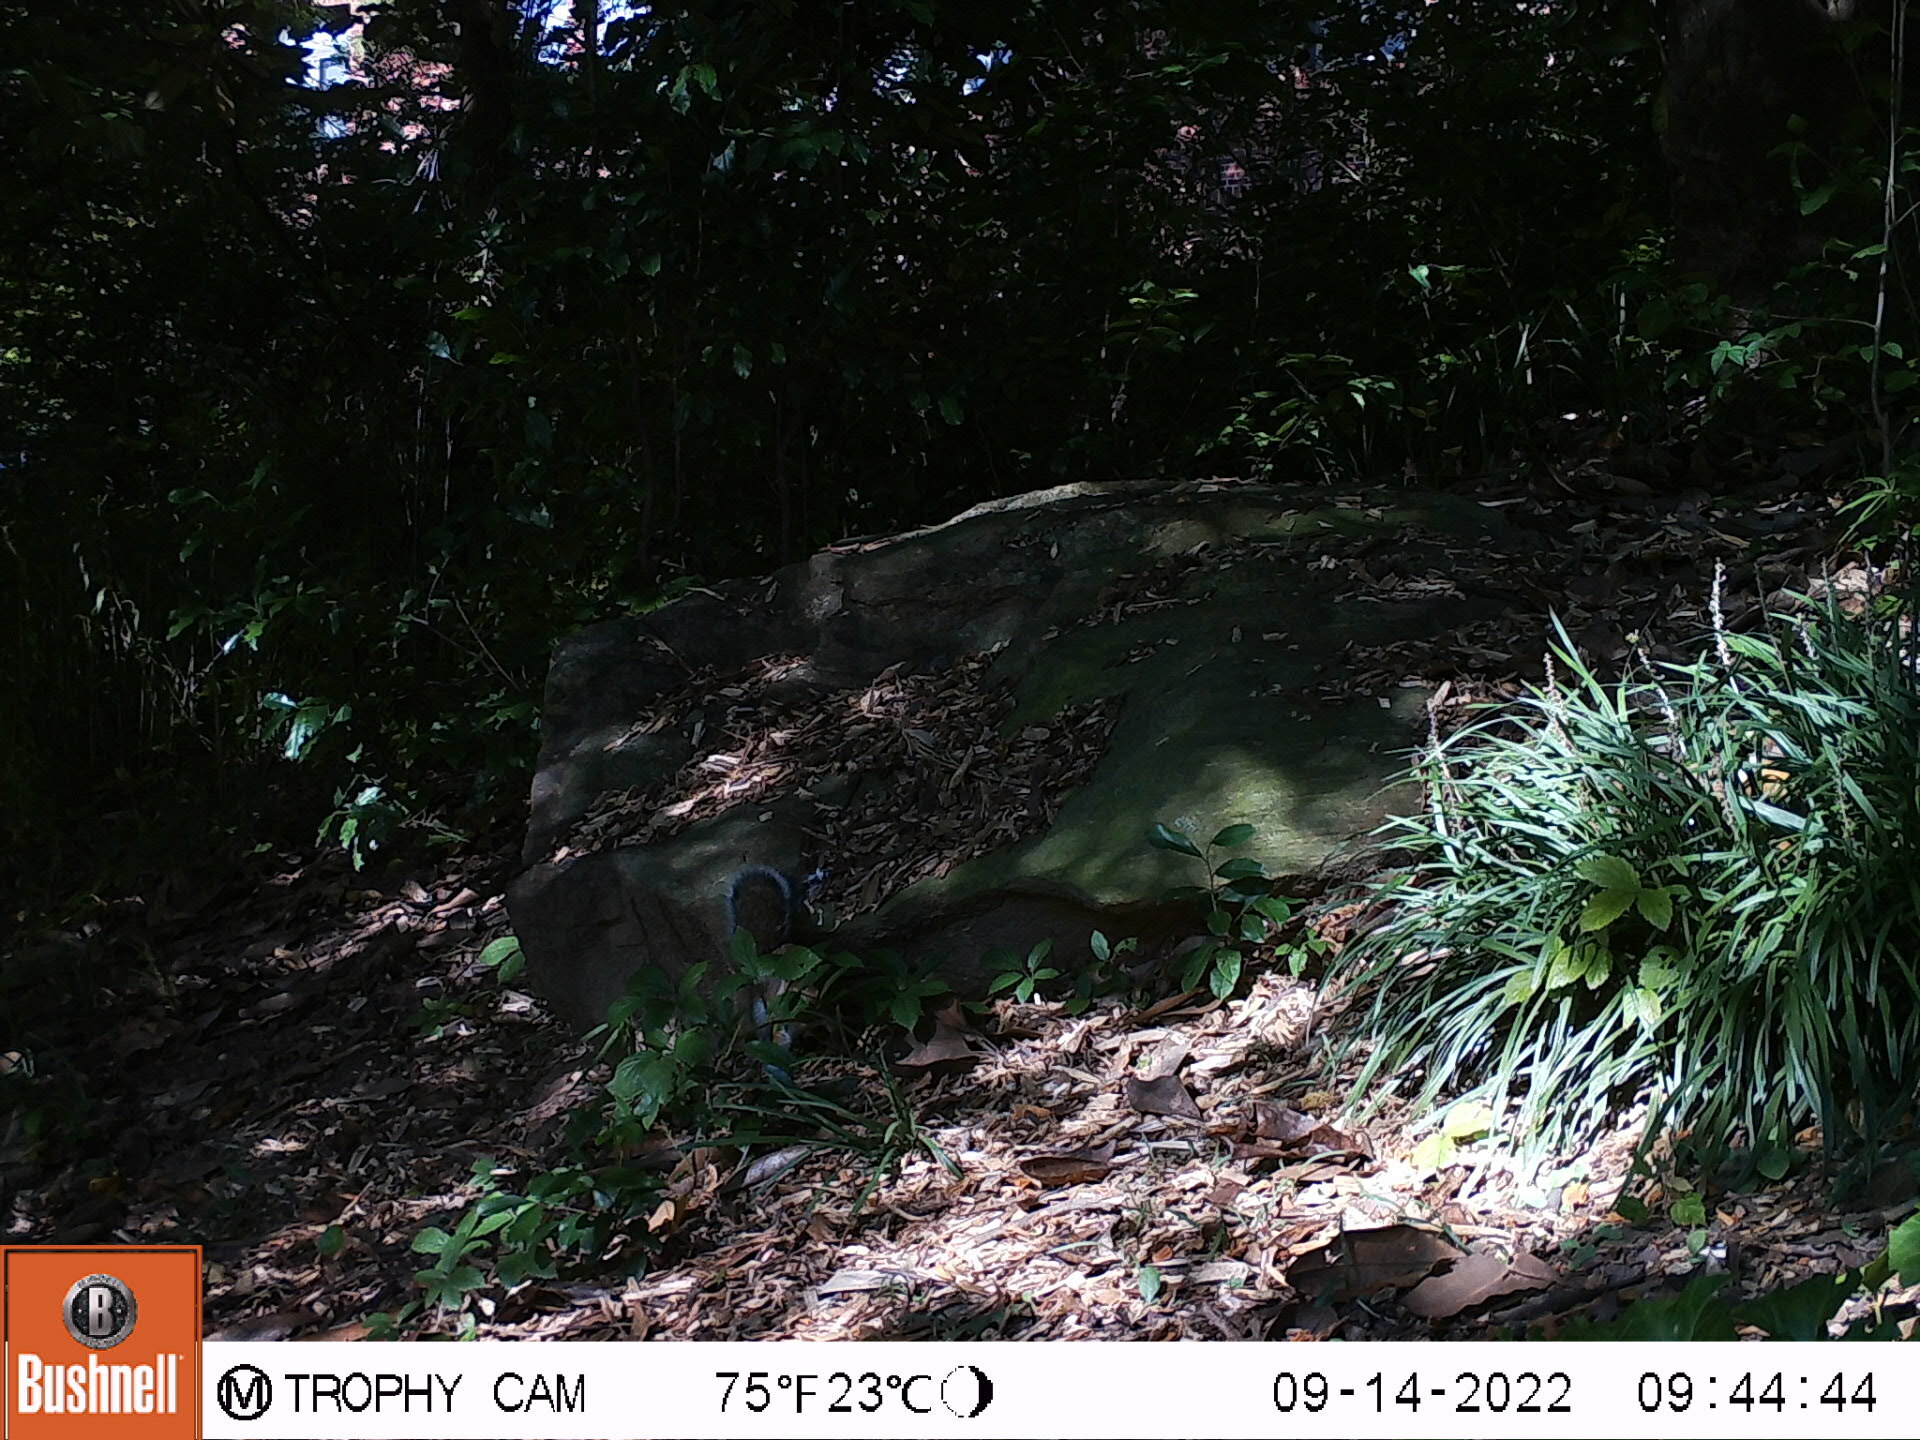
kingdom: Animalia
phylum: Chordata
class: Mammalia
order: Rodentia
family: Sciuridae
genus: Sciurus
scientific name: Sciurus carolinensis
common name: Eastern gray squirrel
